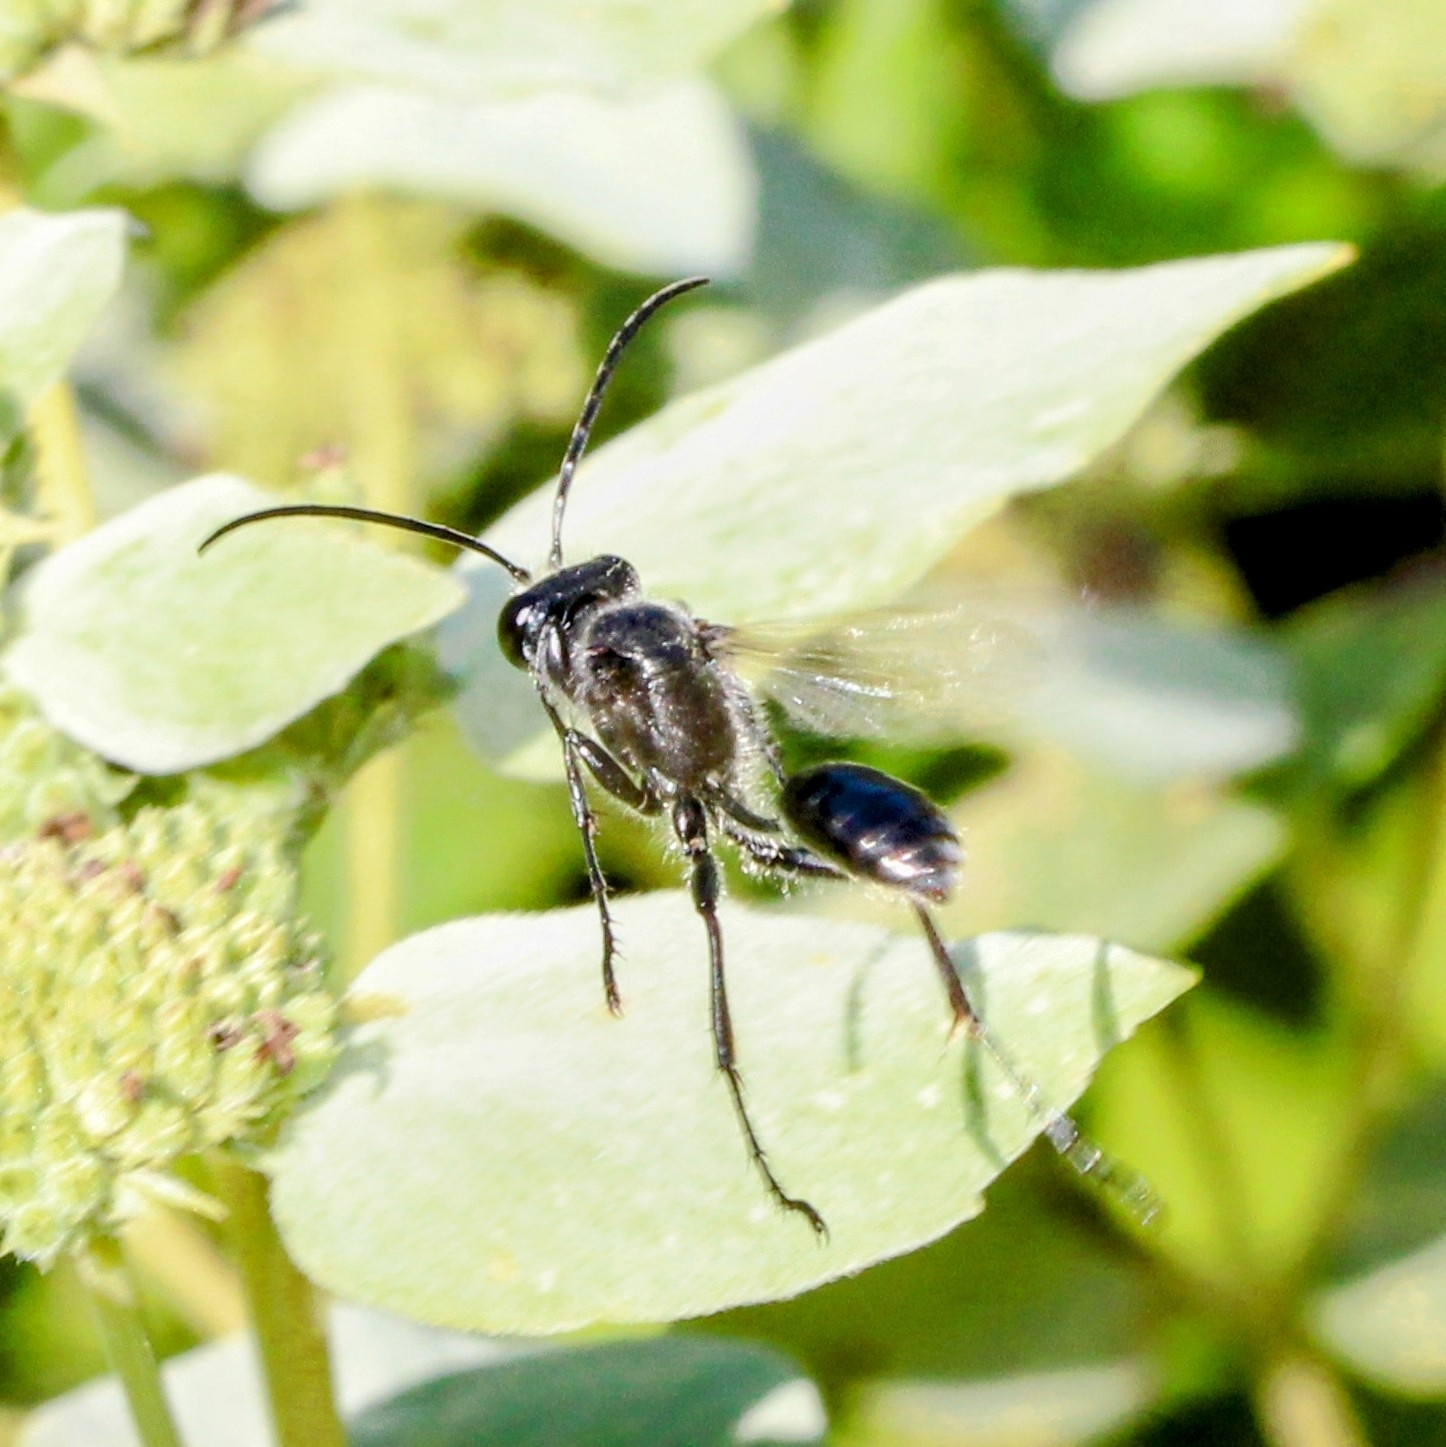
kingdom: Animalia
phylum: Arthropoda
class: Insecta
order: Hymenoptera
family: Sphecidae
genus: Isodontia
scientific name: Isodontia mexicana
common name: Mud dauber
